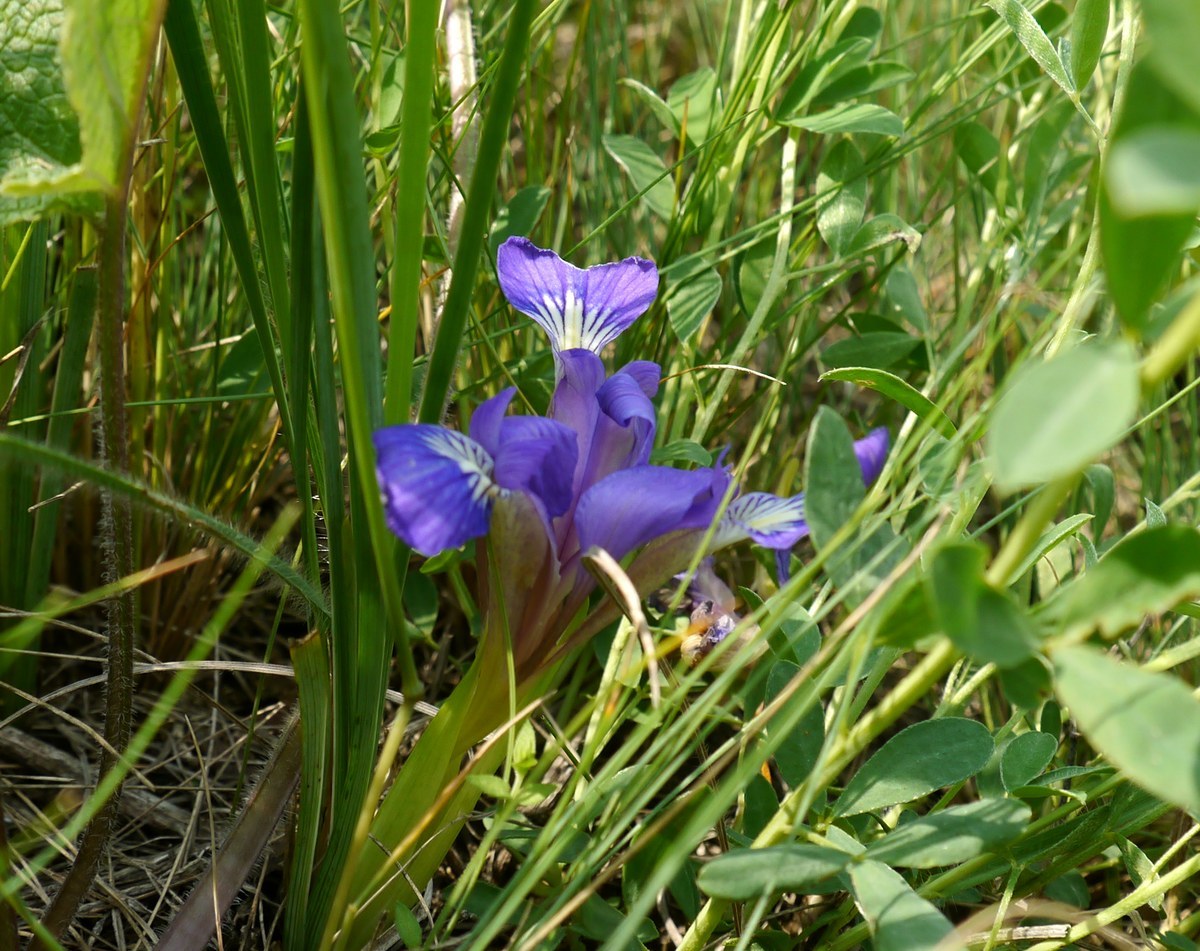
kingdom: Plantae
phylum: Tracheophyta
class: Liliopsida
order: Asparagales
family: Iridaceae
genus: Iris
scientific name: Iris pontica
